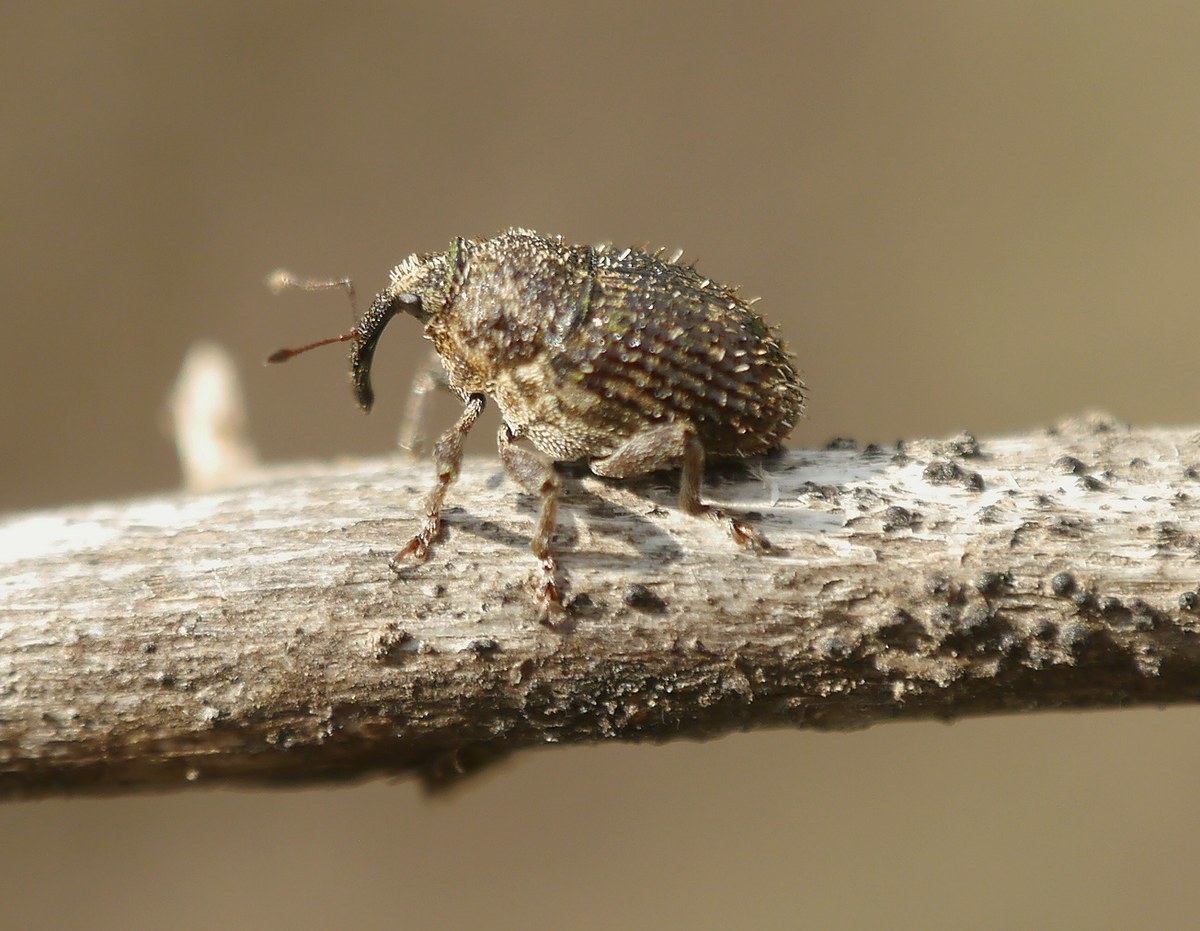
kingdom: Animalia
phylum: Arthropoda
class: Insecta
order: Coleoptera
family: Curculionidae
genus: Trichosirocalus
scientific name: Trichosirocalus horridus
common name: Musk thistle rosette weevil
